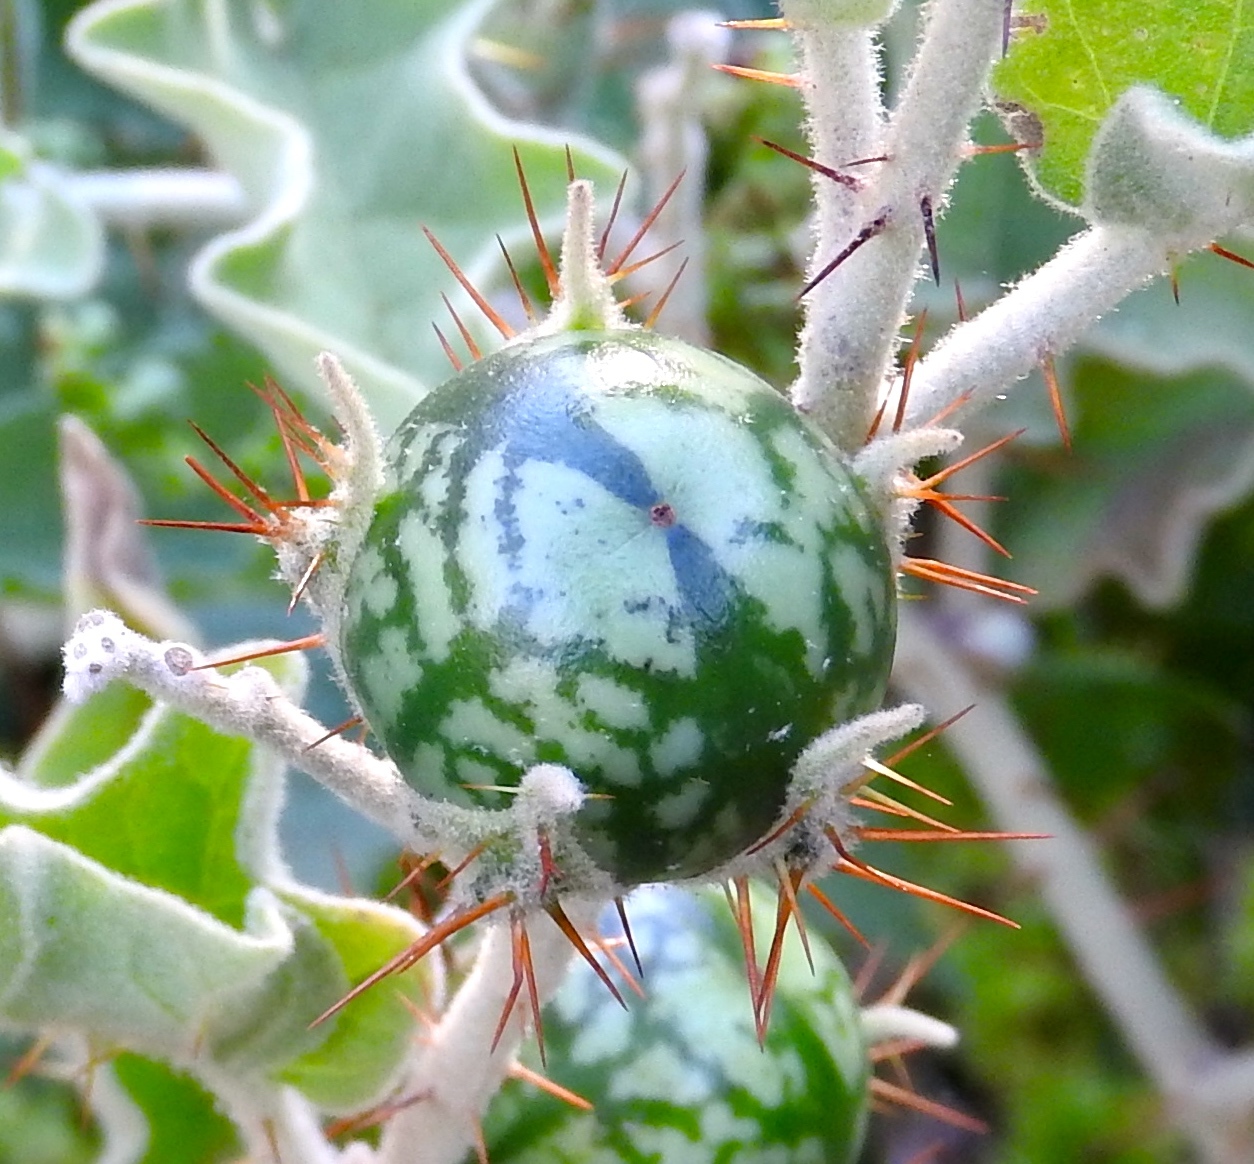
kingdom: Plantae
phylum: Tracheophyta
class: Magnoliopsida
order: Solanales
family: Solanaceae
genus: Solanum
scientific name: Solanum houstonii
